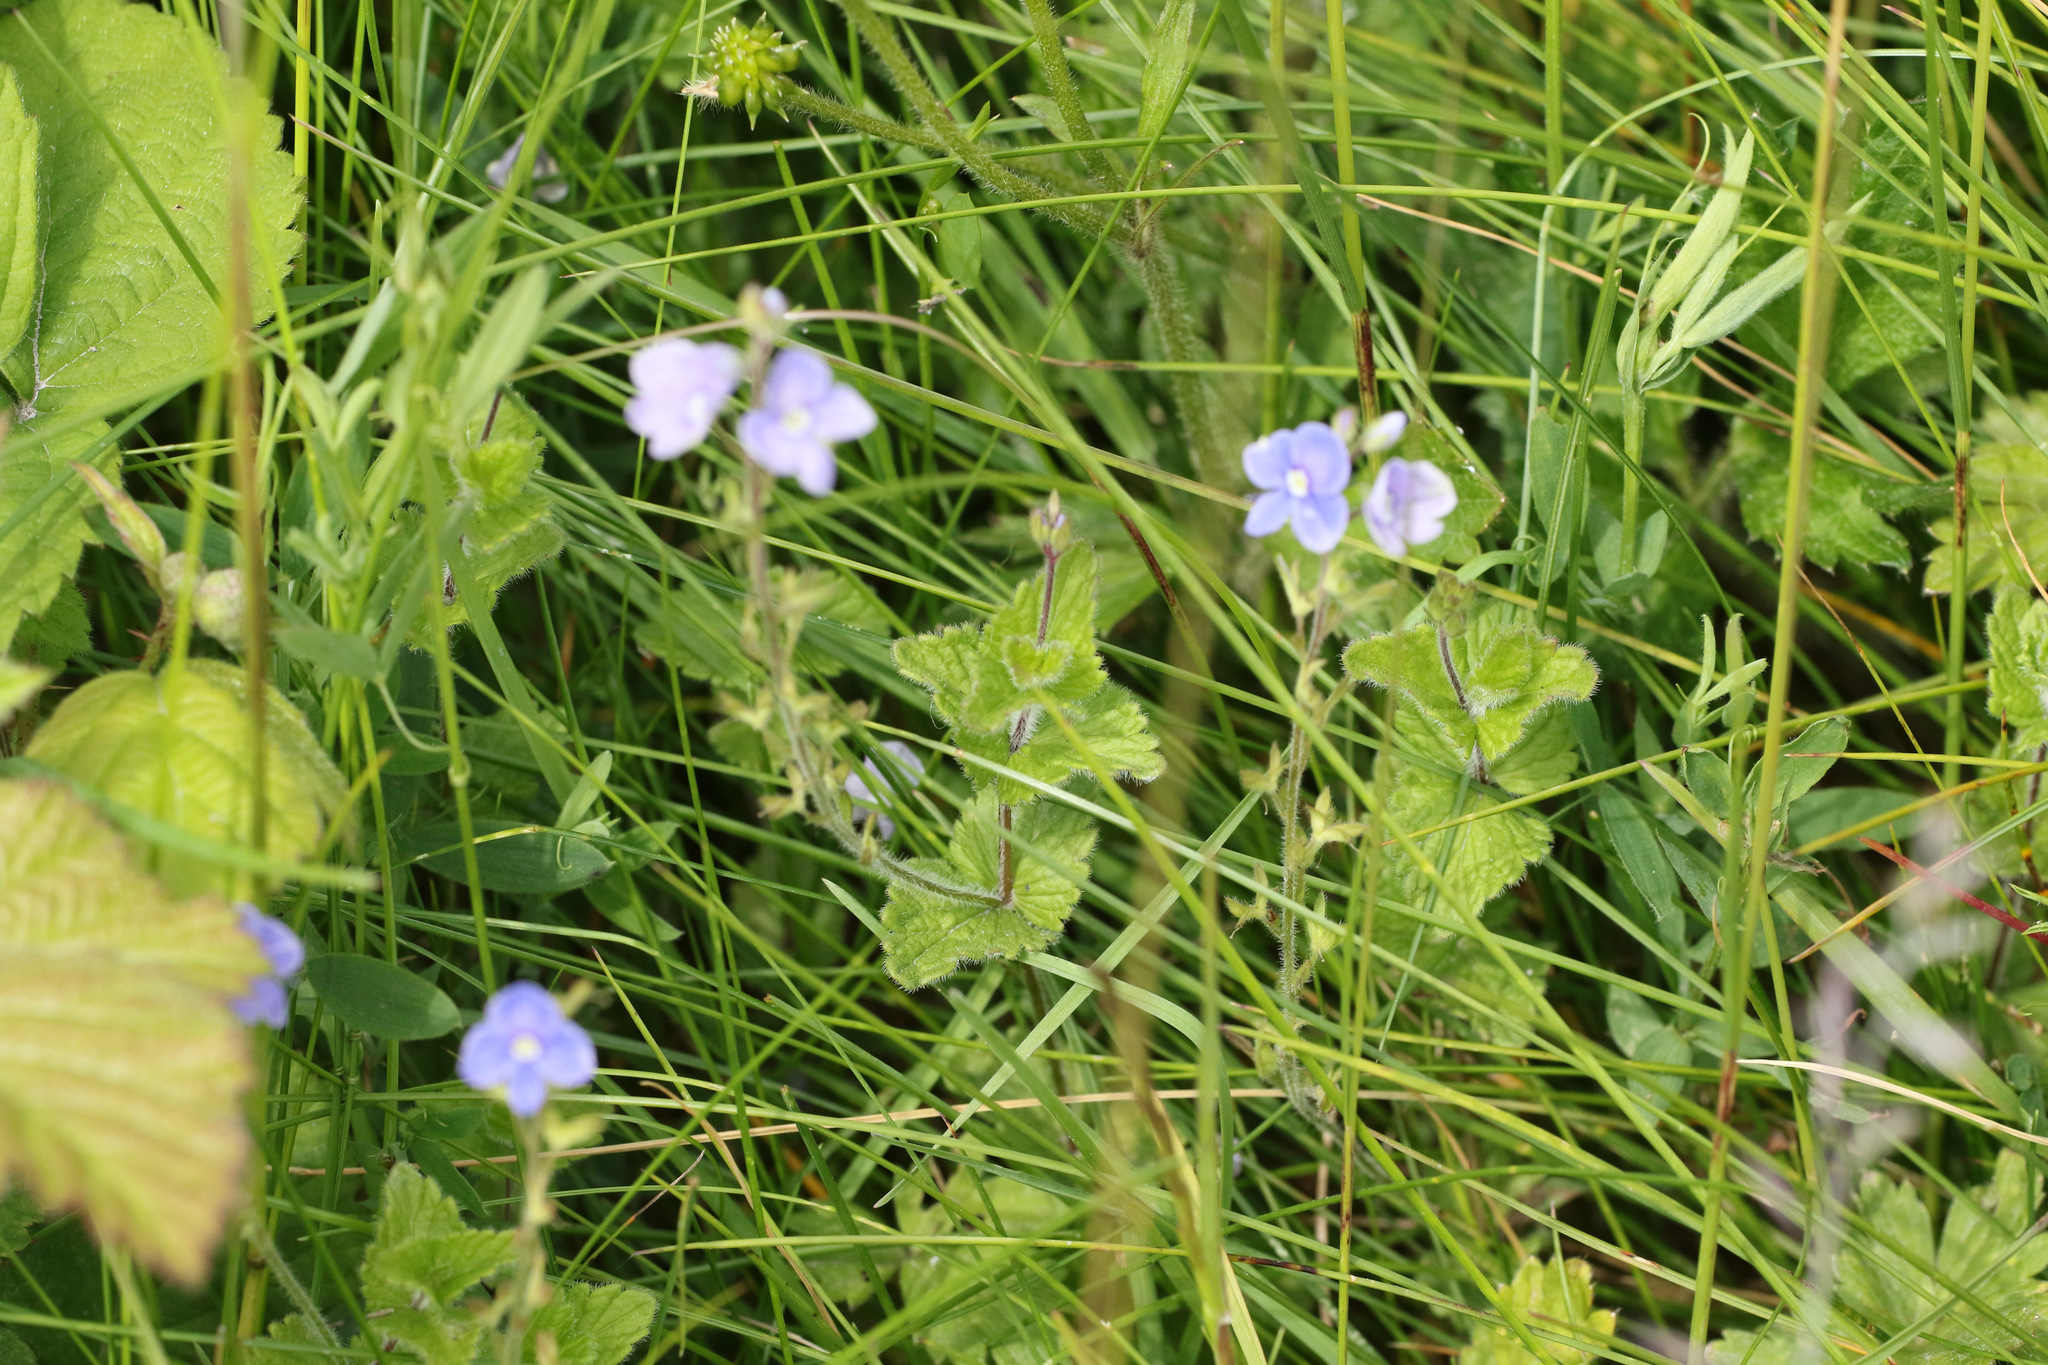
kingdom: Plantae
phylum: Tracheophyta
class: Magnoliopsida
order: Lamiales
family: Plantaginaceae
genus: Veronica
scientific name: Veronica chamaedrys
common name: Germander speedwell
